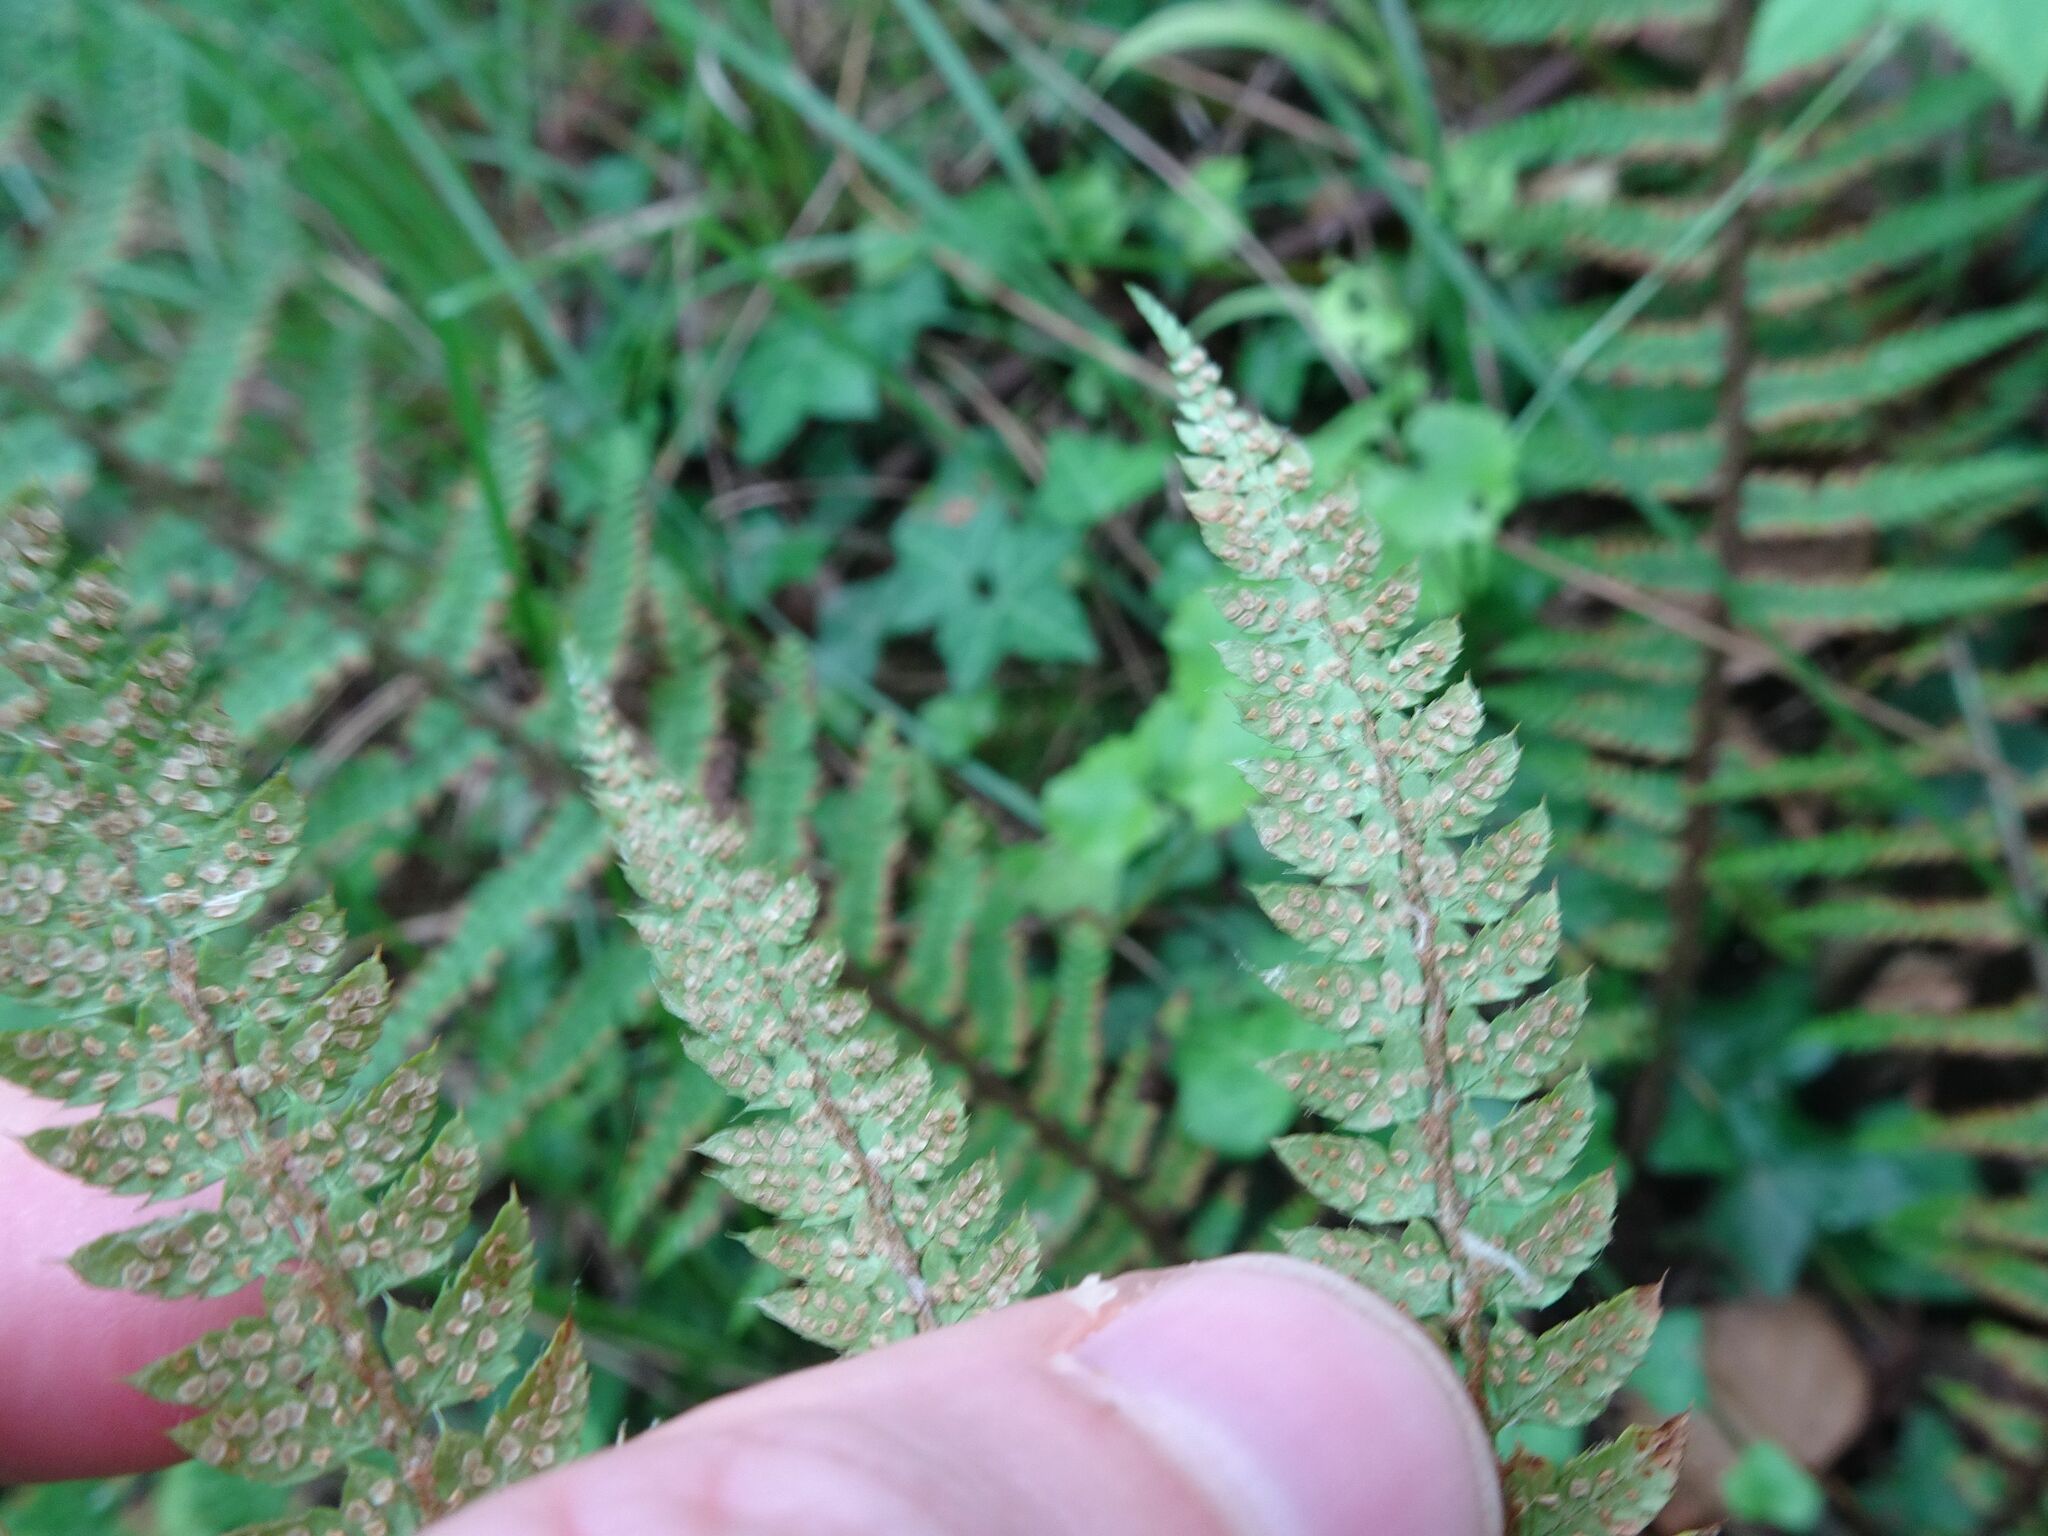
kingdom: Plantae
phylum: Tracheophyta
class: Polypodiopsida
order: Polypodiales
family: Dryopteridaceae
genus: Polystichum
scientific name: Polystichum setiferum
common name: Soft shield-fern
